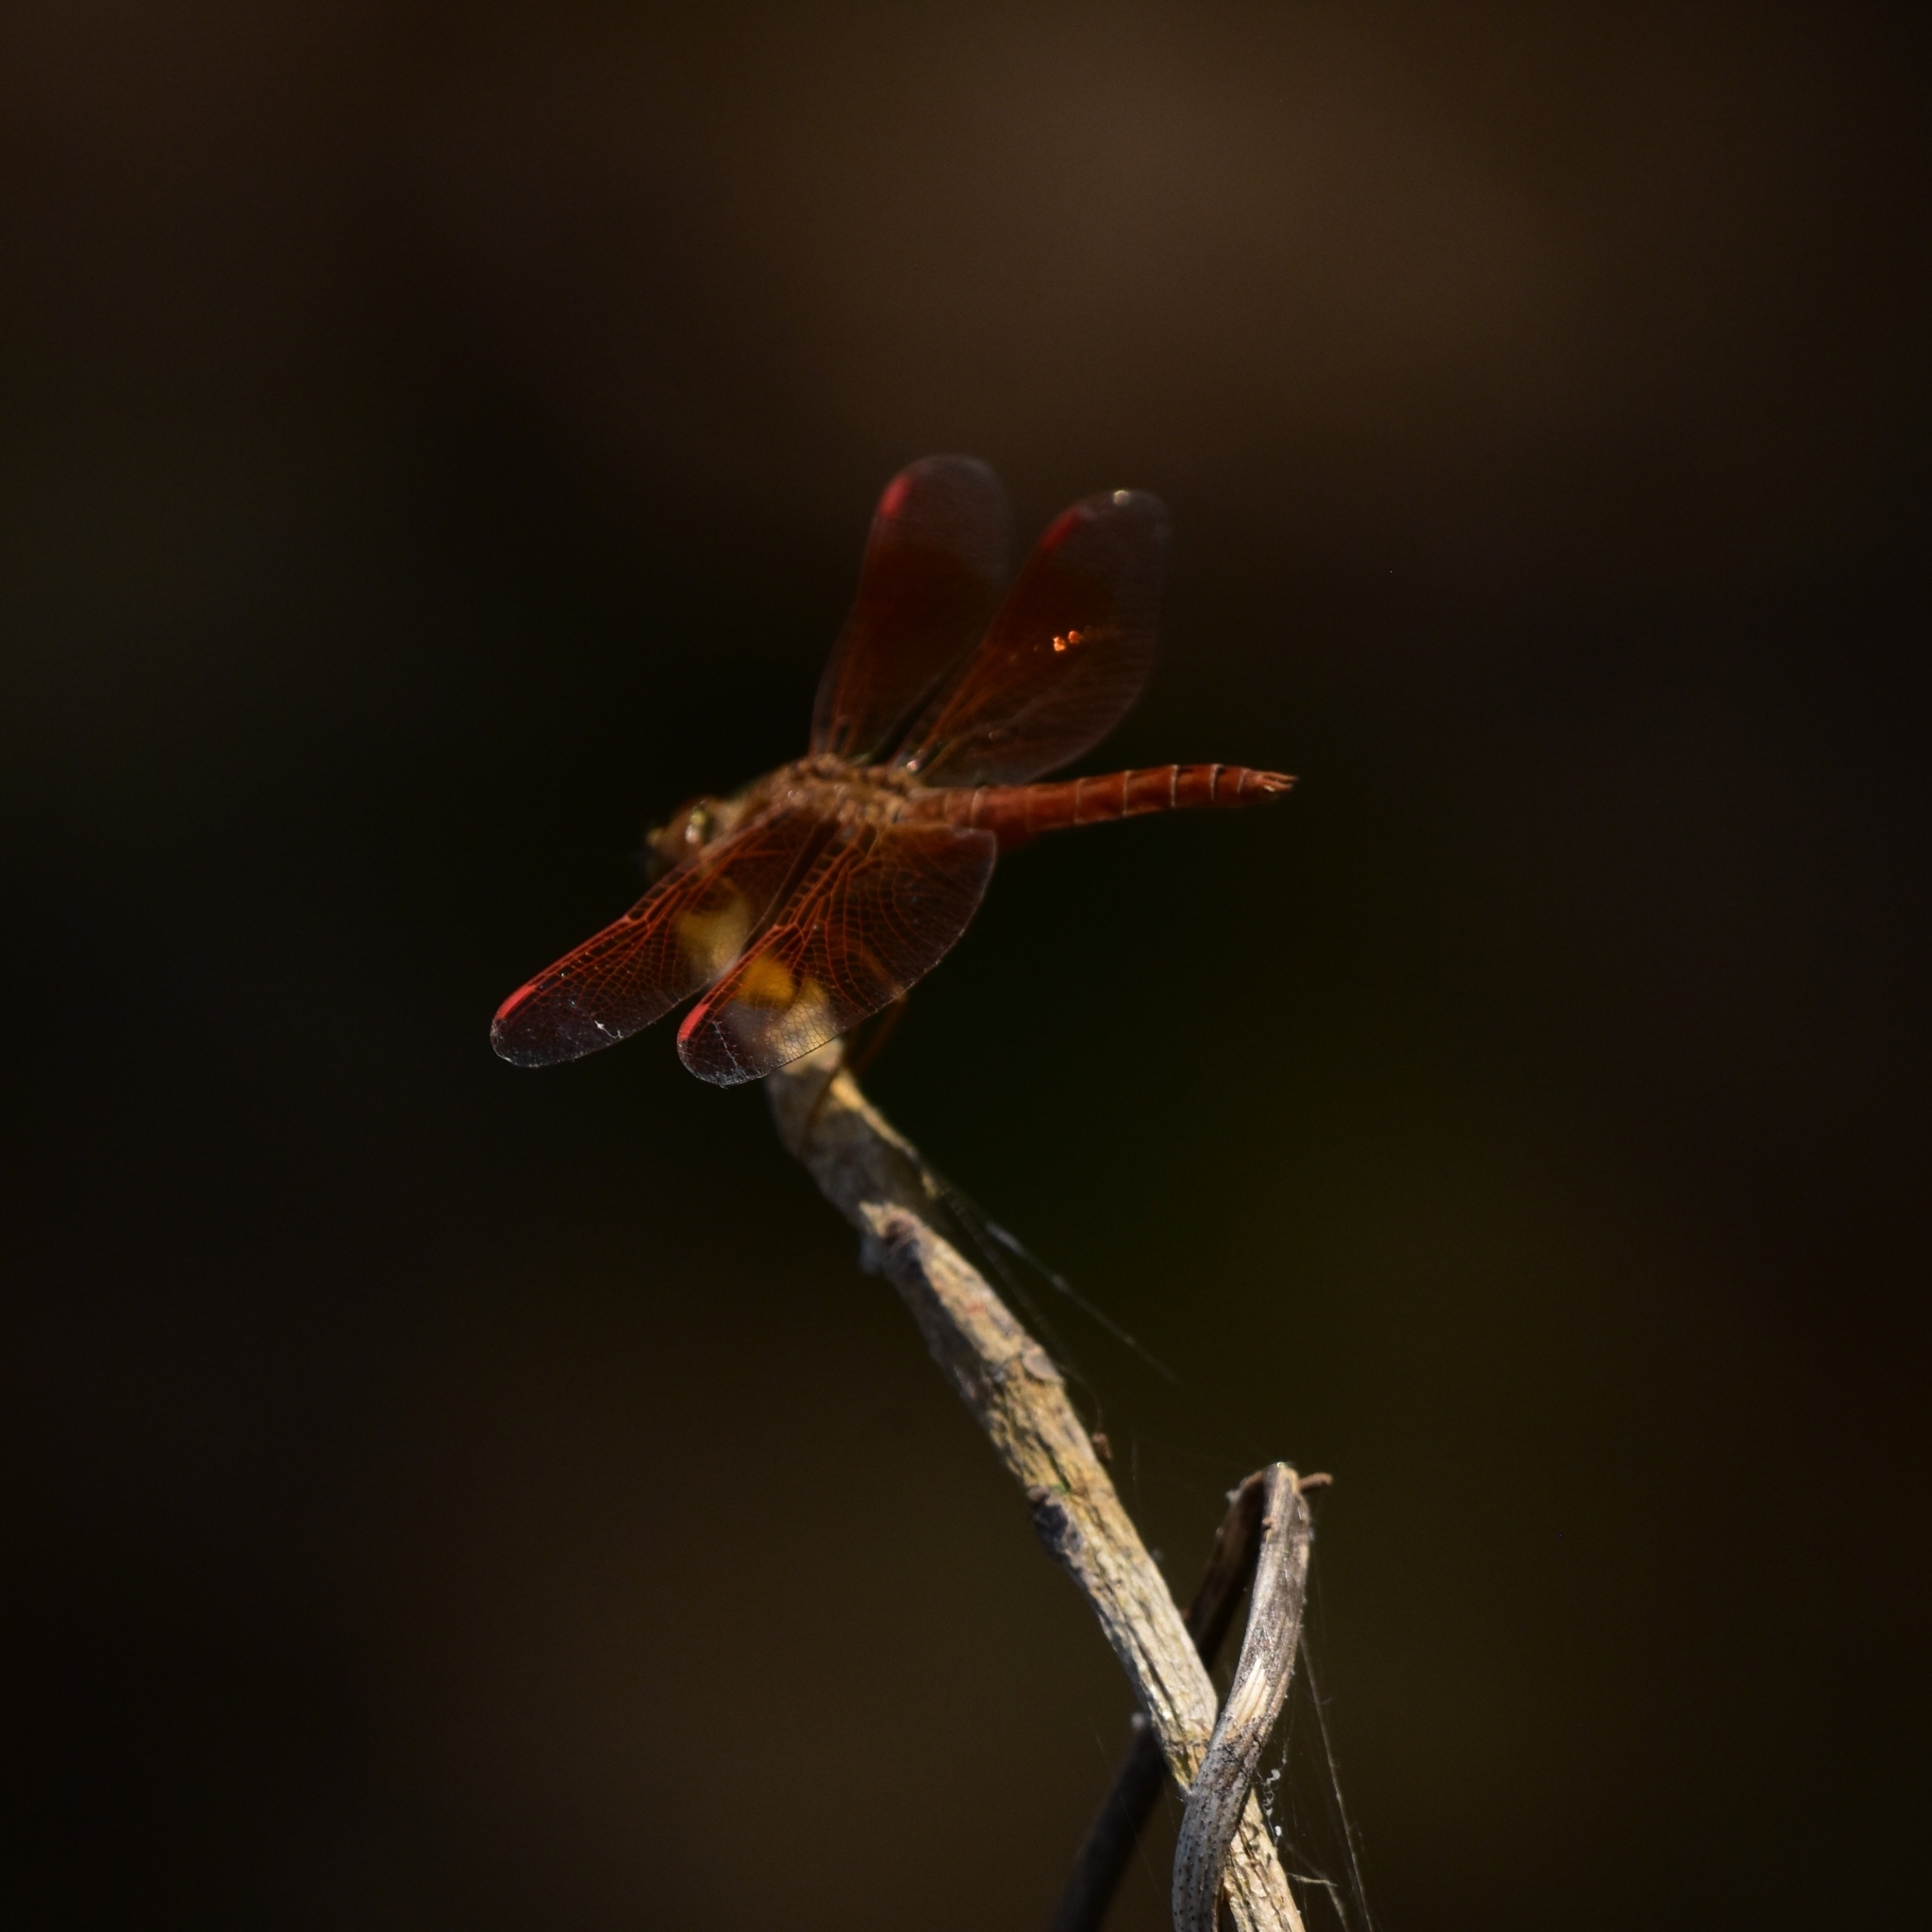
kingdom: Animalia
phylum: Arthropoda
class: Insecta
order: Odonata
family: Libellulidae
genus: Brachythemis
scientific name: Brachythemis contaminata
